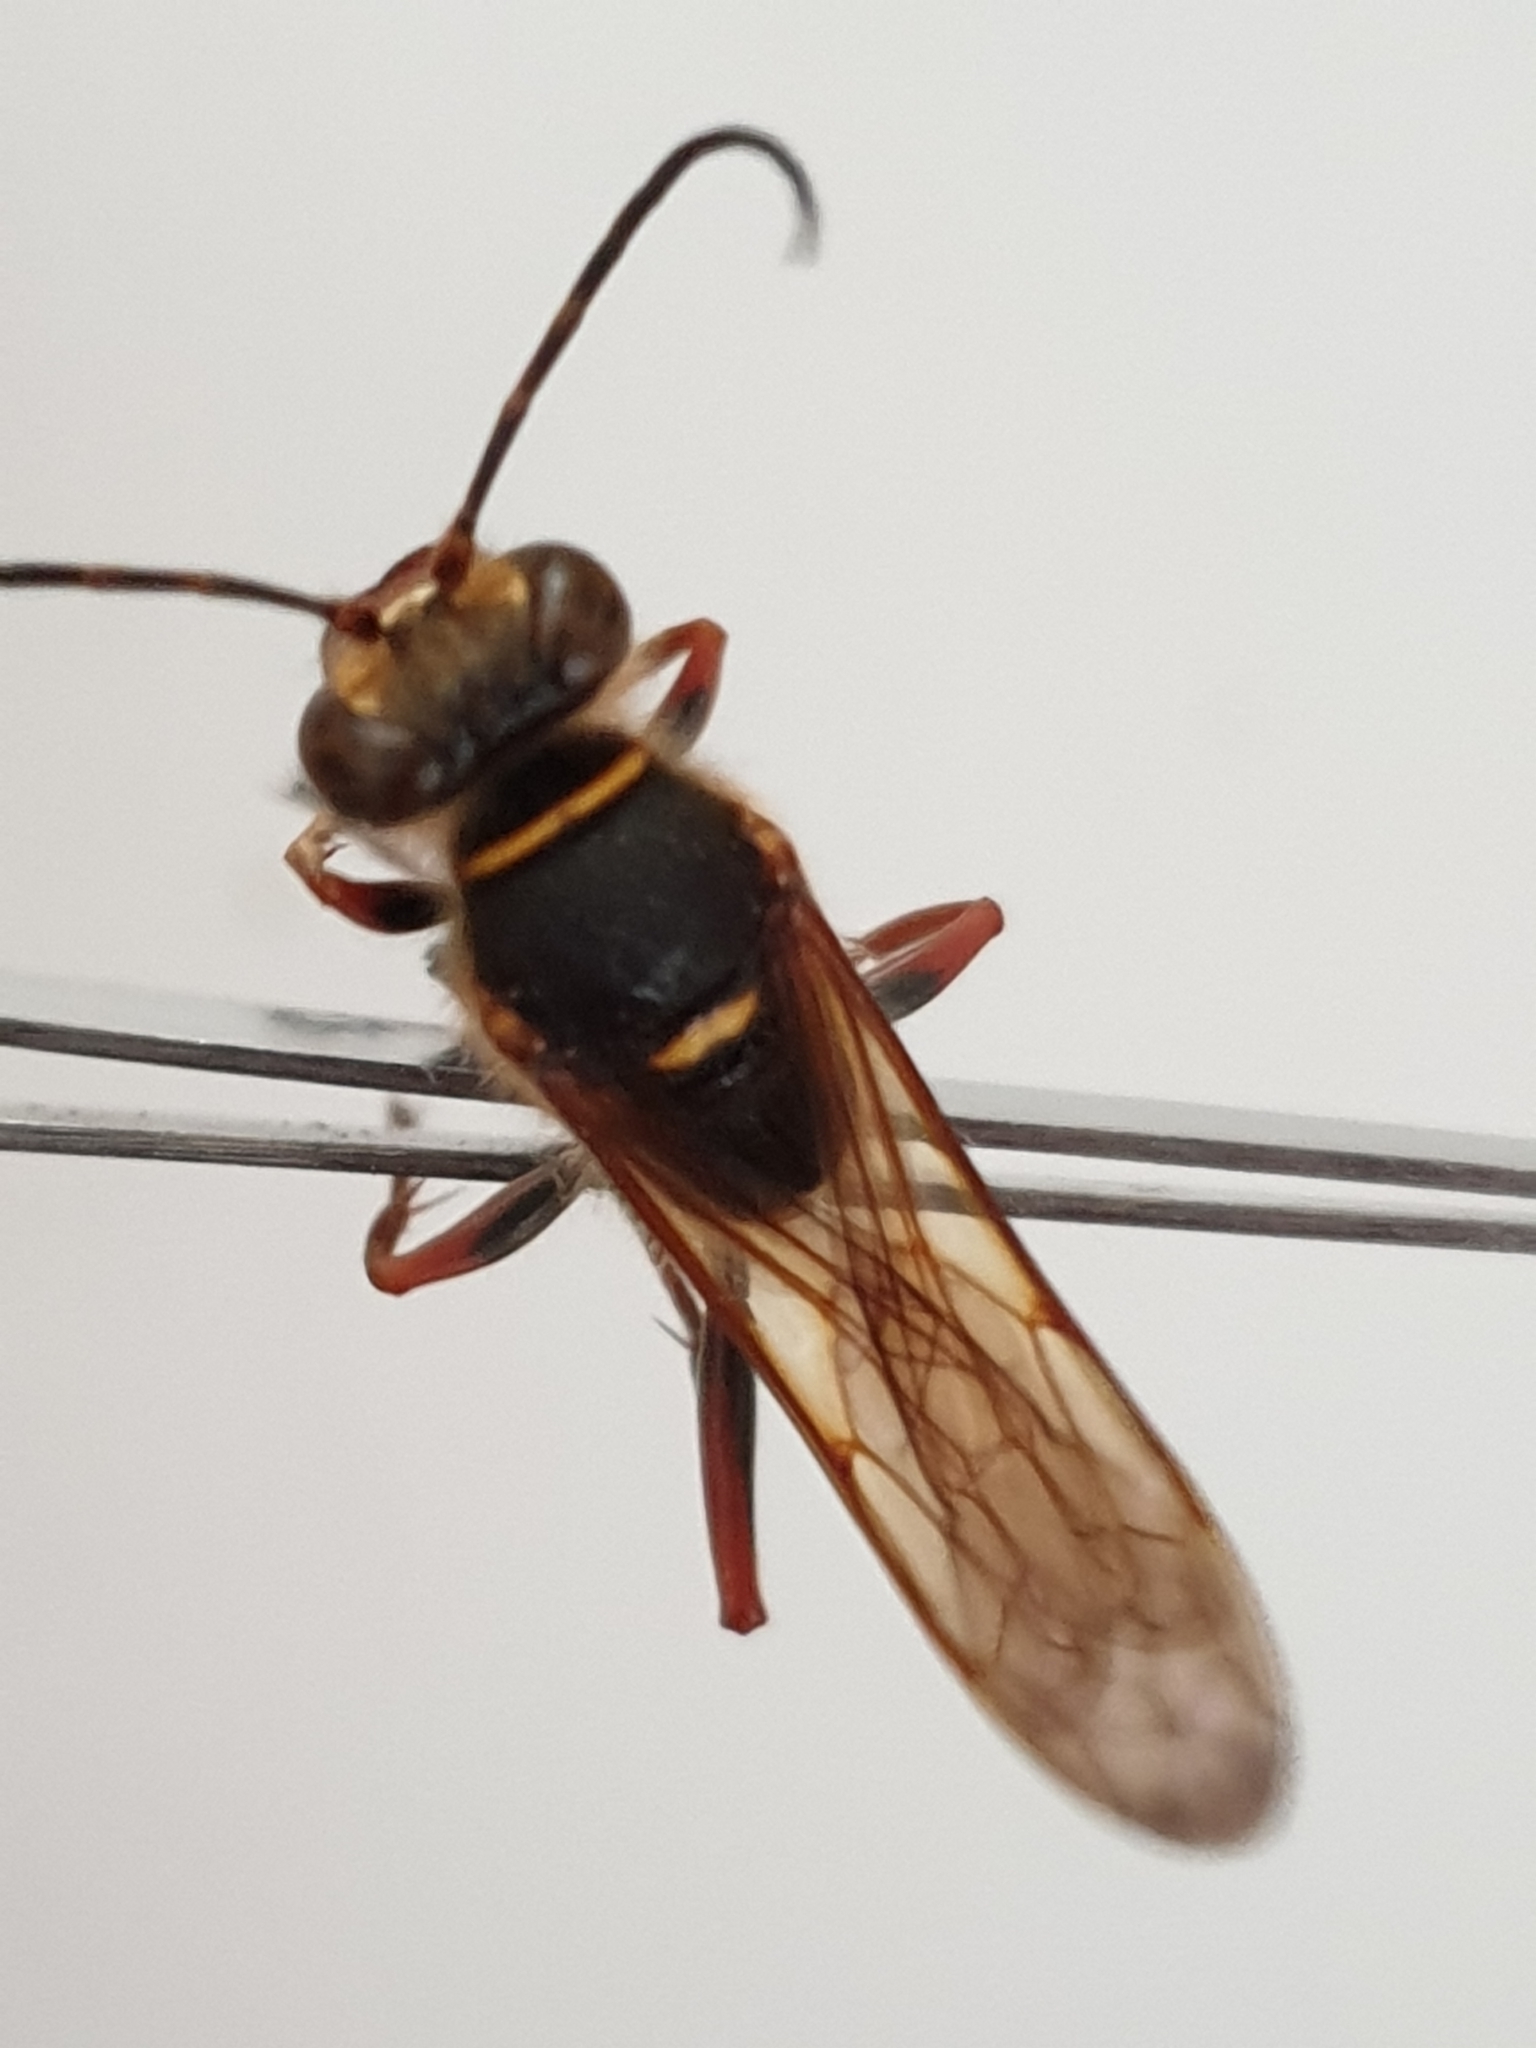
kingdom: Animalia
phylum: Arthropoda
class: Insecta
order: Hymenoptera
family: Sphecidae
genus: Sceliphron
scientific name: Sceliphron curvatum
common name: Pèlopèe
